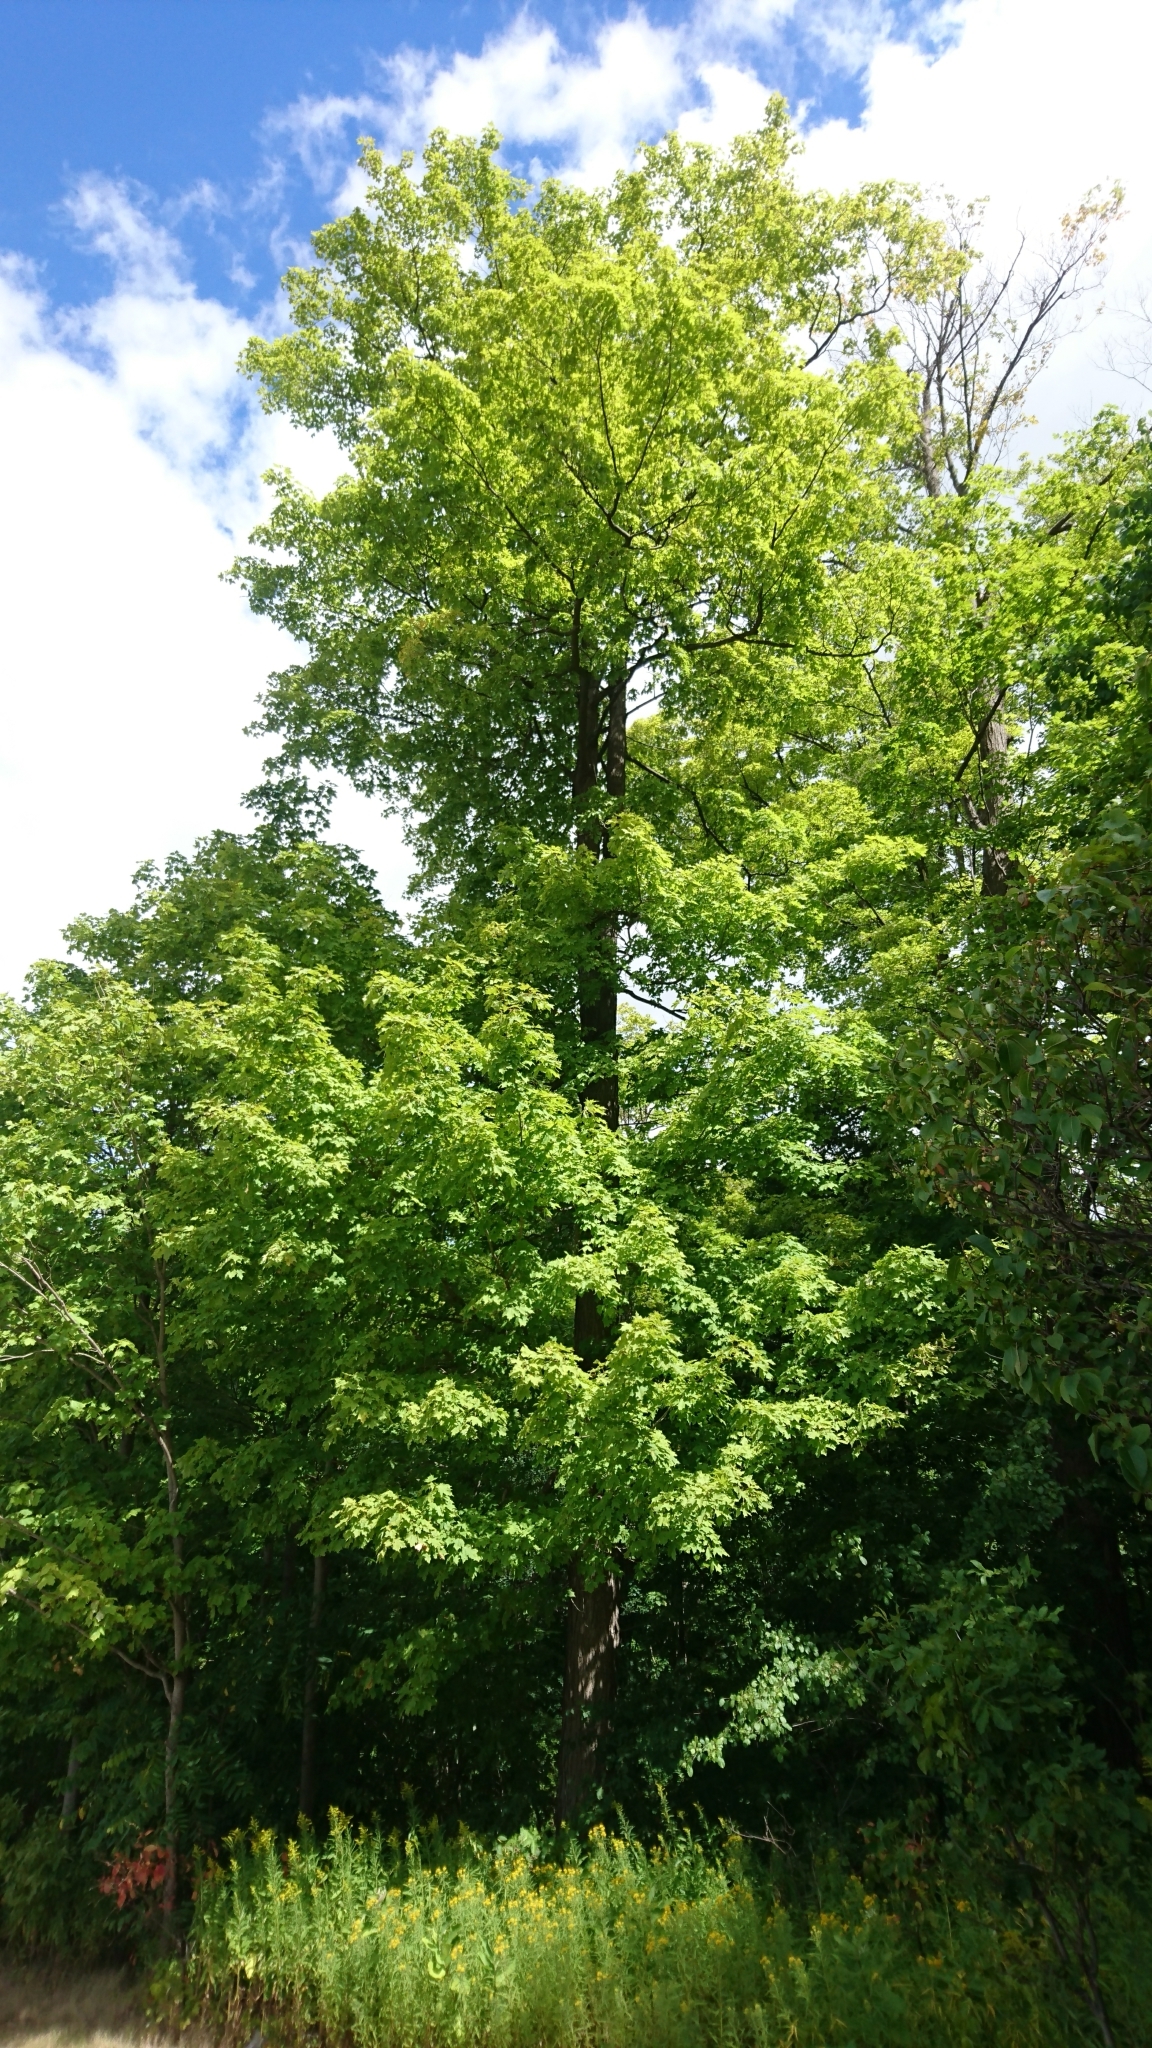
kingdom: Plantae
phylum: Tracheophyta
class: Magnoliopsida
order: Sapindales
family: Sapindaceae
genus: Acer
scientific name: Acer saccharum
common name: Sugar maple
